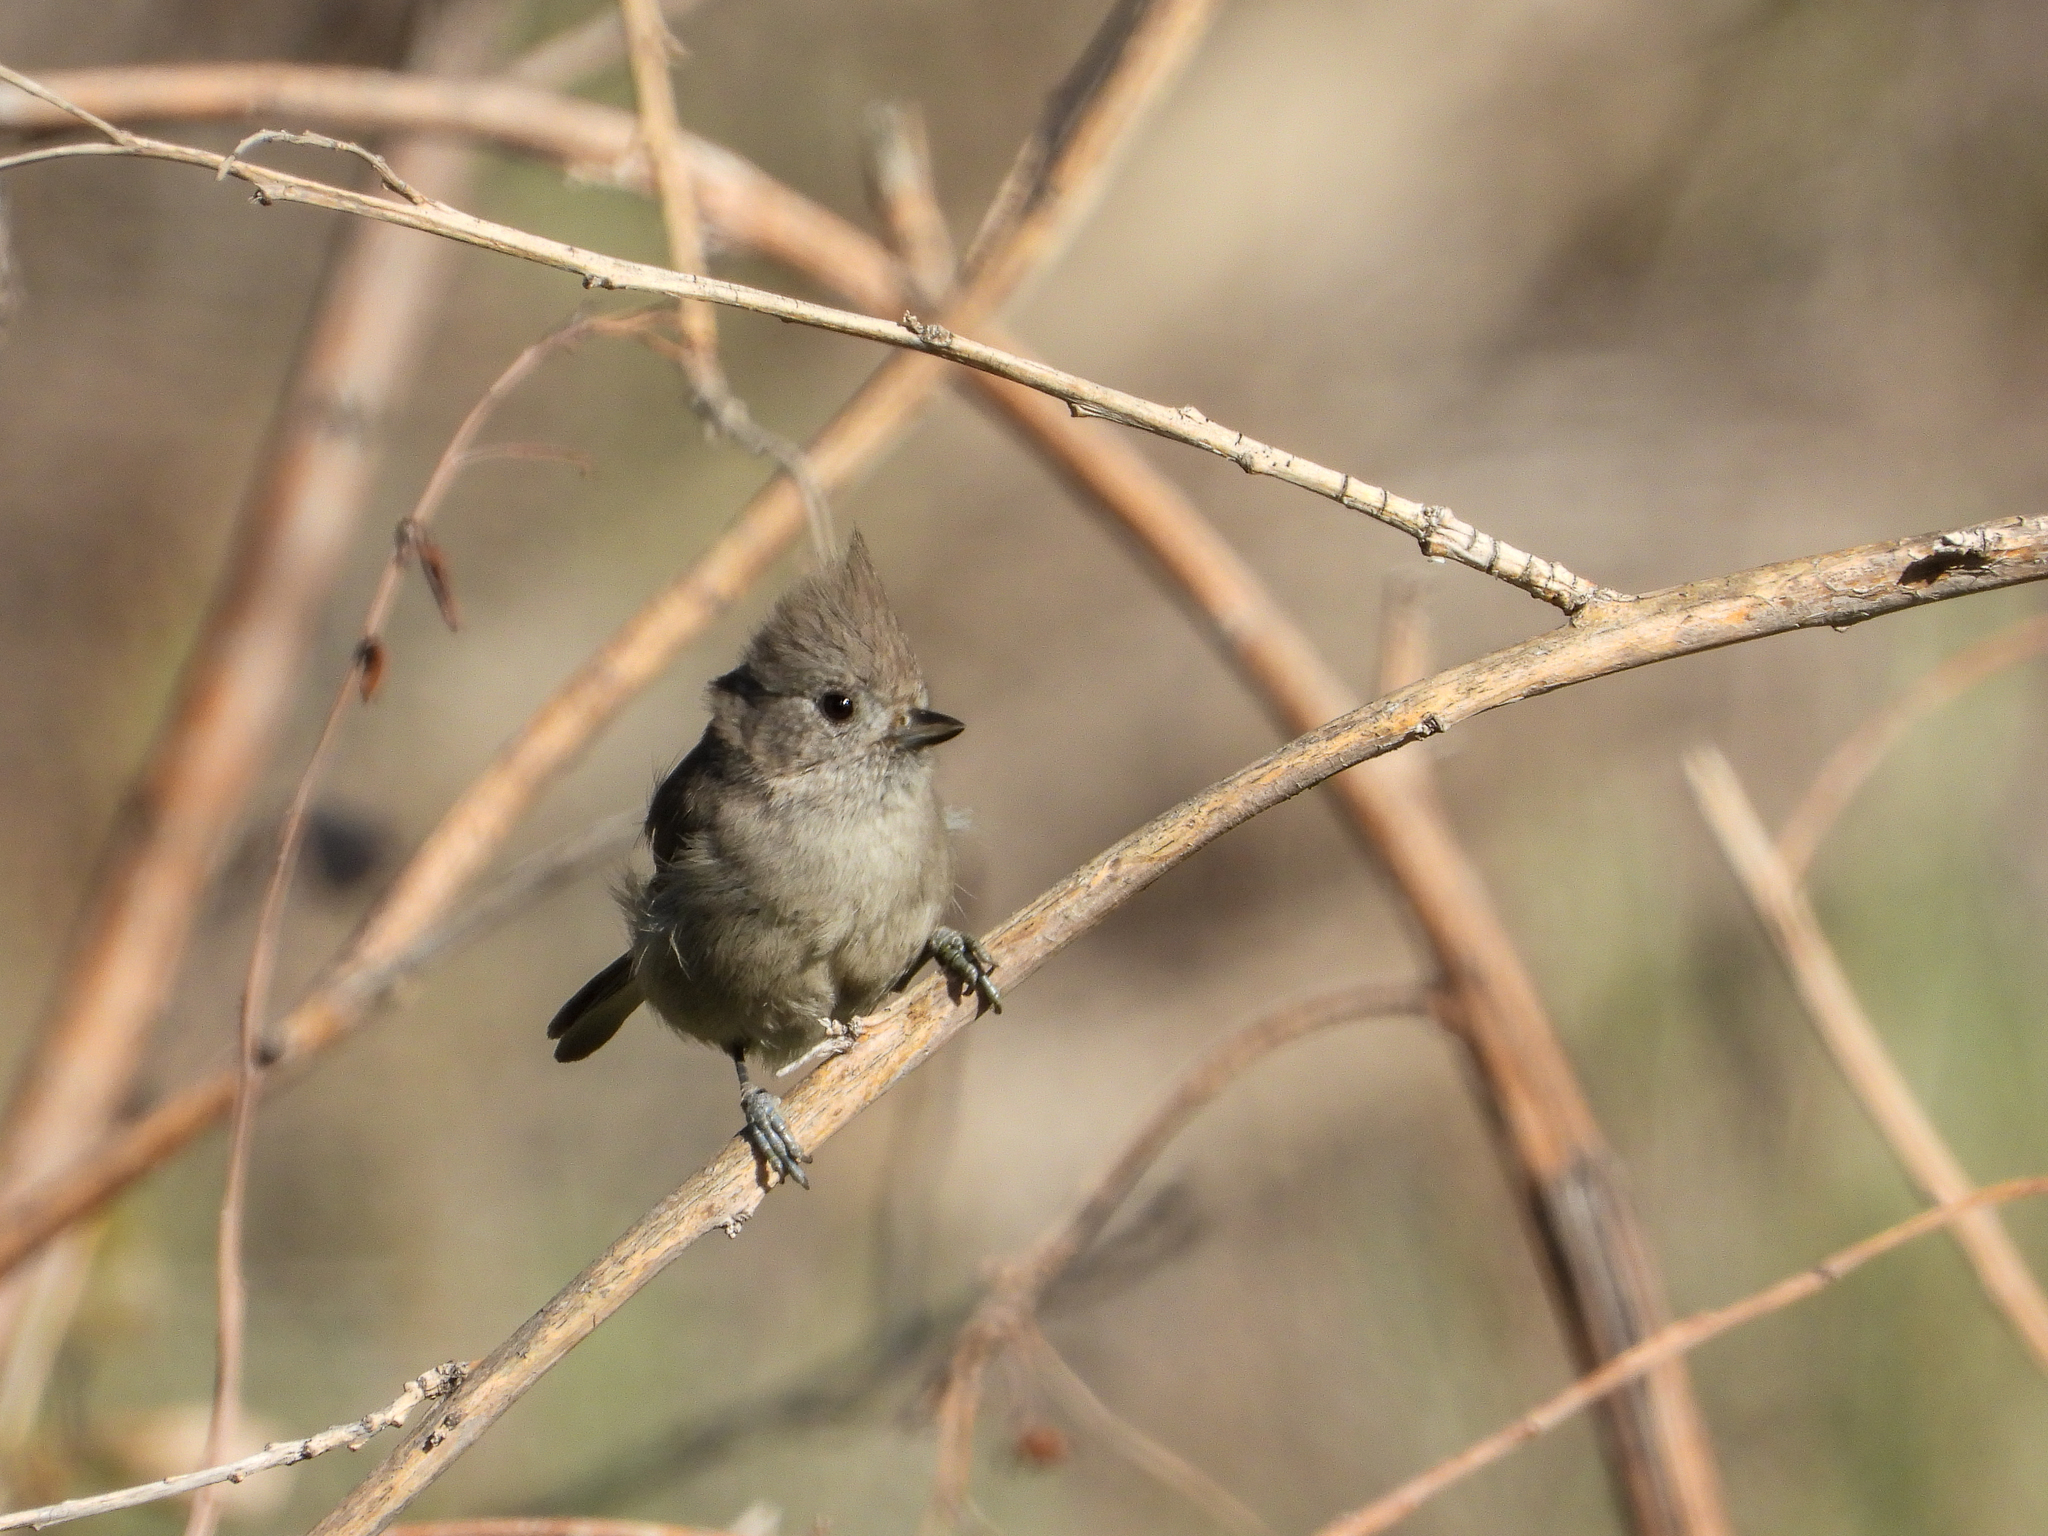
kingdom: Animalia
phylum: Chordata
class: Aves
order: Passeriformes
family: Paridae
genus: Baeolophus
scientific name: Baeolophus inornatus
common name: Oak titmouse
